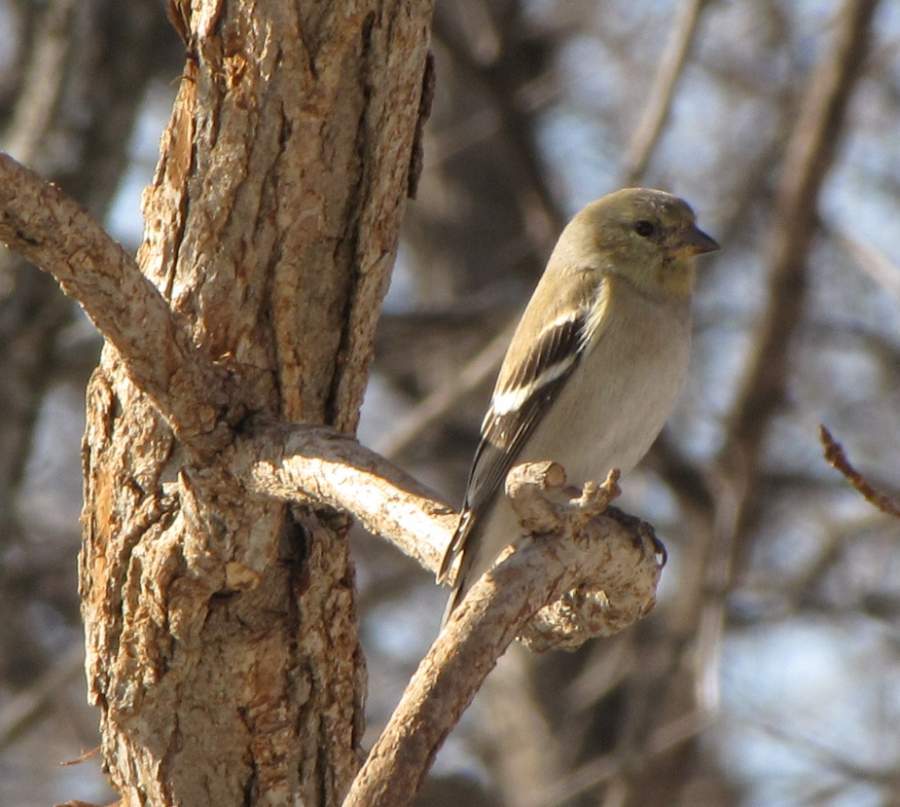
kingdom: Animalia
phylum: Chordata
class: Aves
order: Passeriformes
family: Fringillidae
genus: Spinus
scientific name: Spinus tristis
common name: American goldfinch
